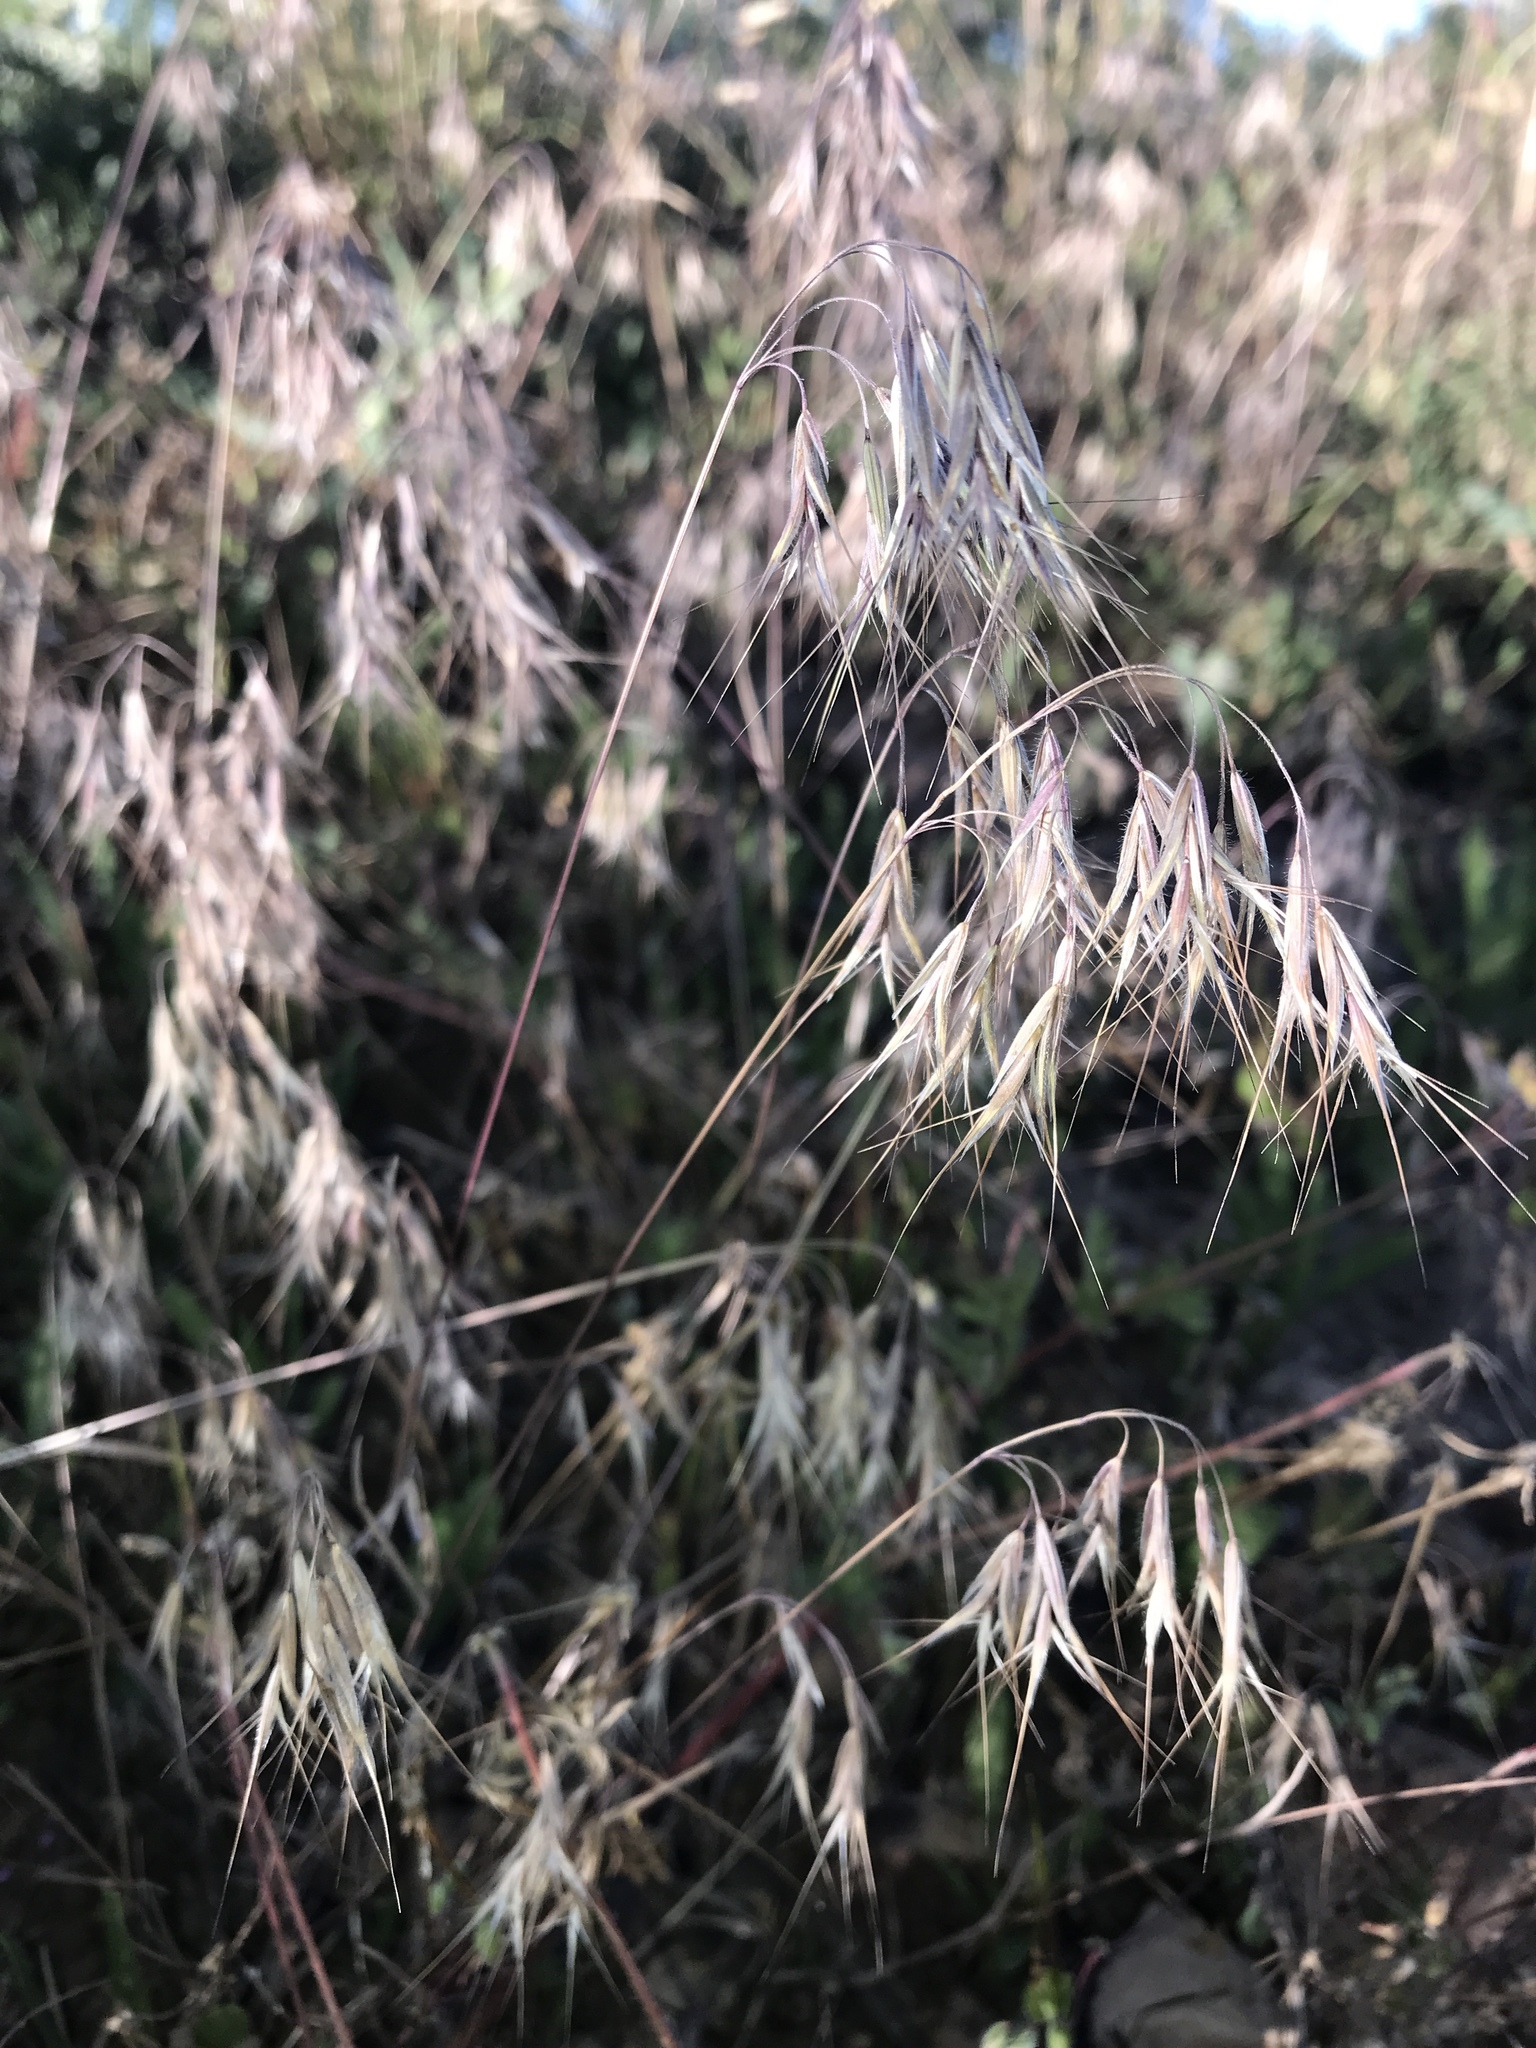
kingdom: Plantae
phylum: Tracheophyta
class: Liliopsida
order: Poales
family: Poaceae
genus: Bromus
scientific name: Bromus tectorum
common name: Cheatgrass
